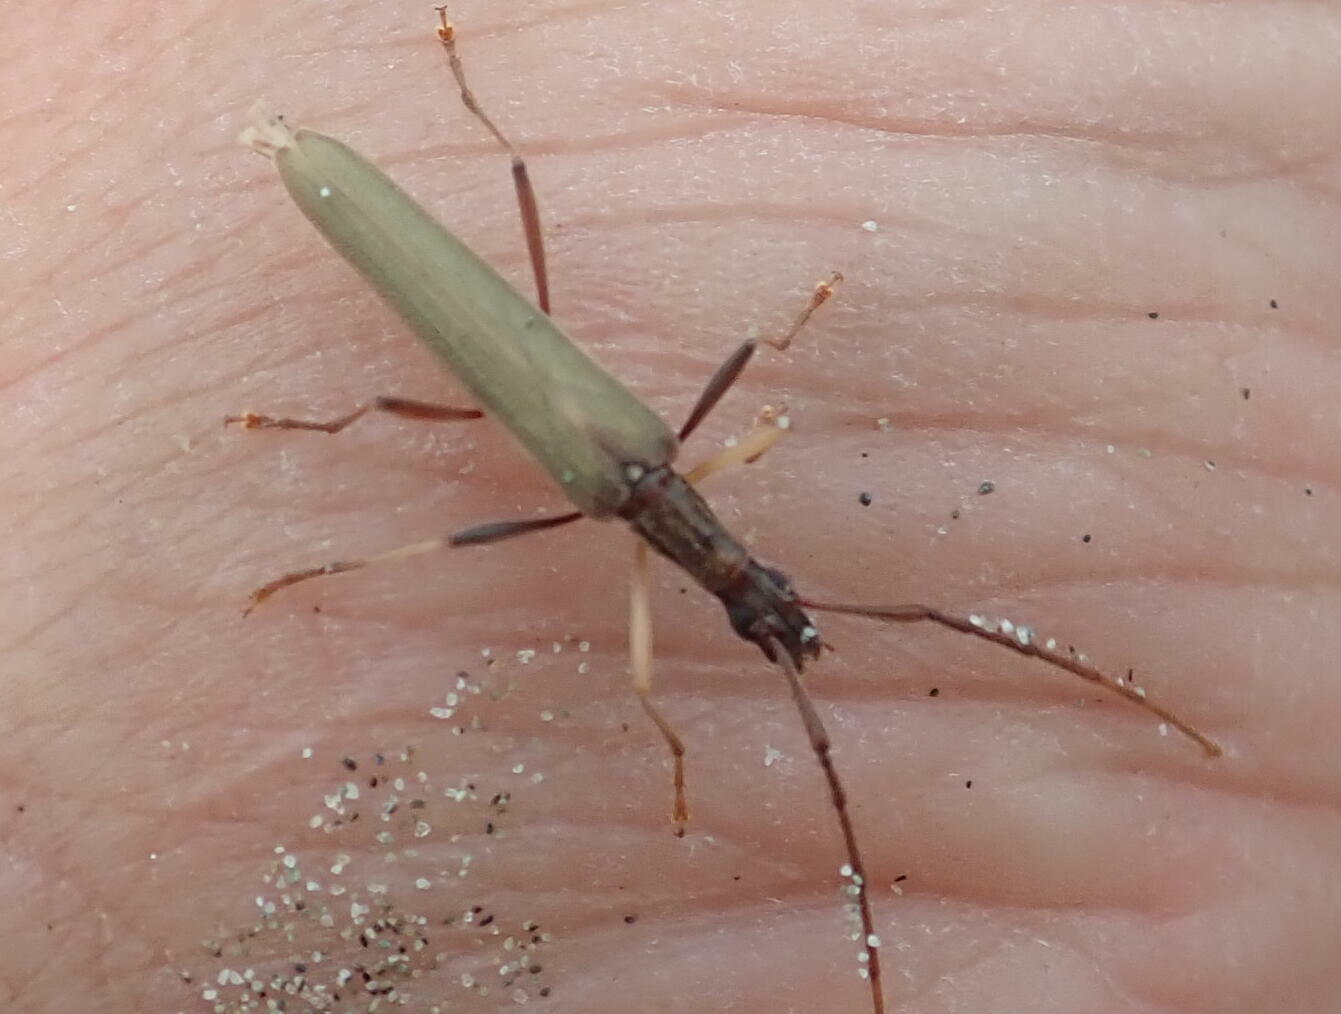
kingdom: Animalia
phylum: Arthropoda
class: Insecta
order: Coleoptera
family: Cerambycidae
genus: Stenopotes
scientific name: Stenopotes pallidus
